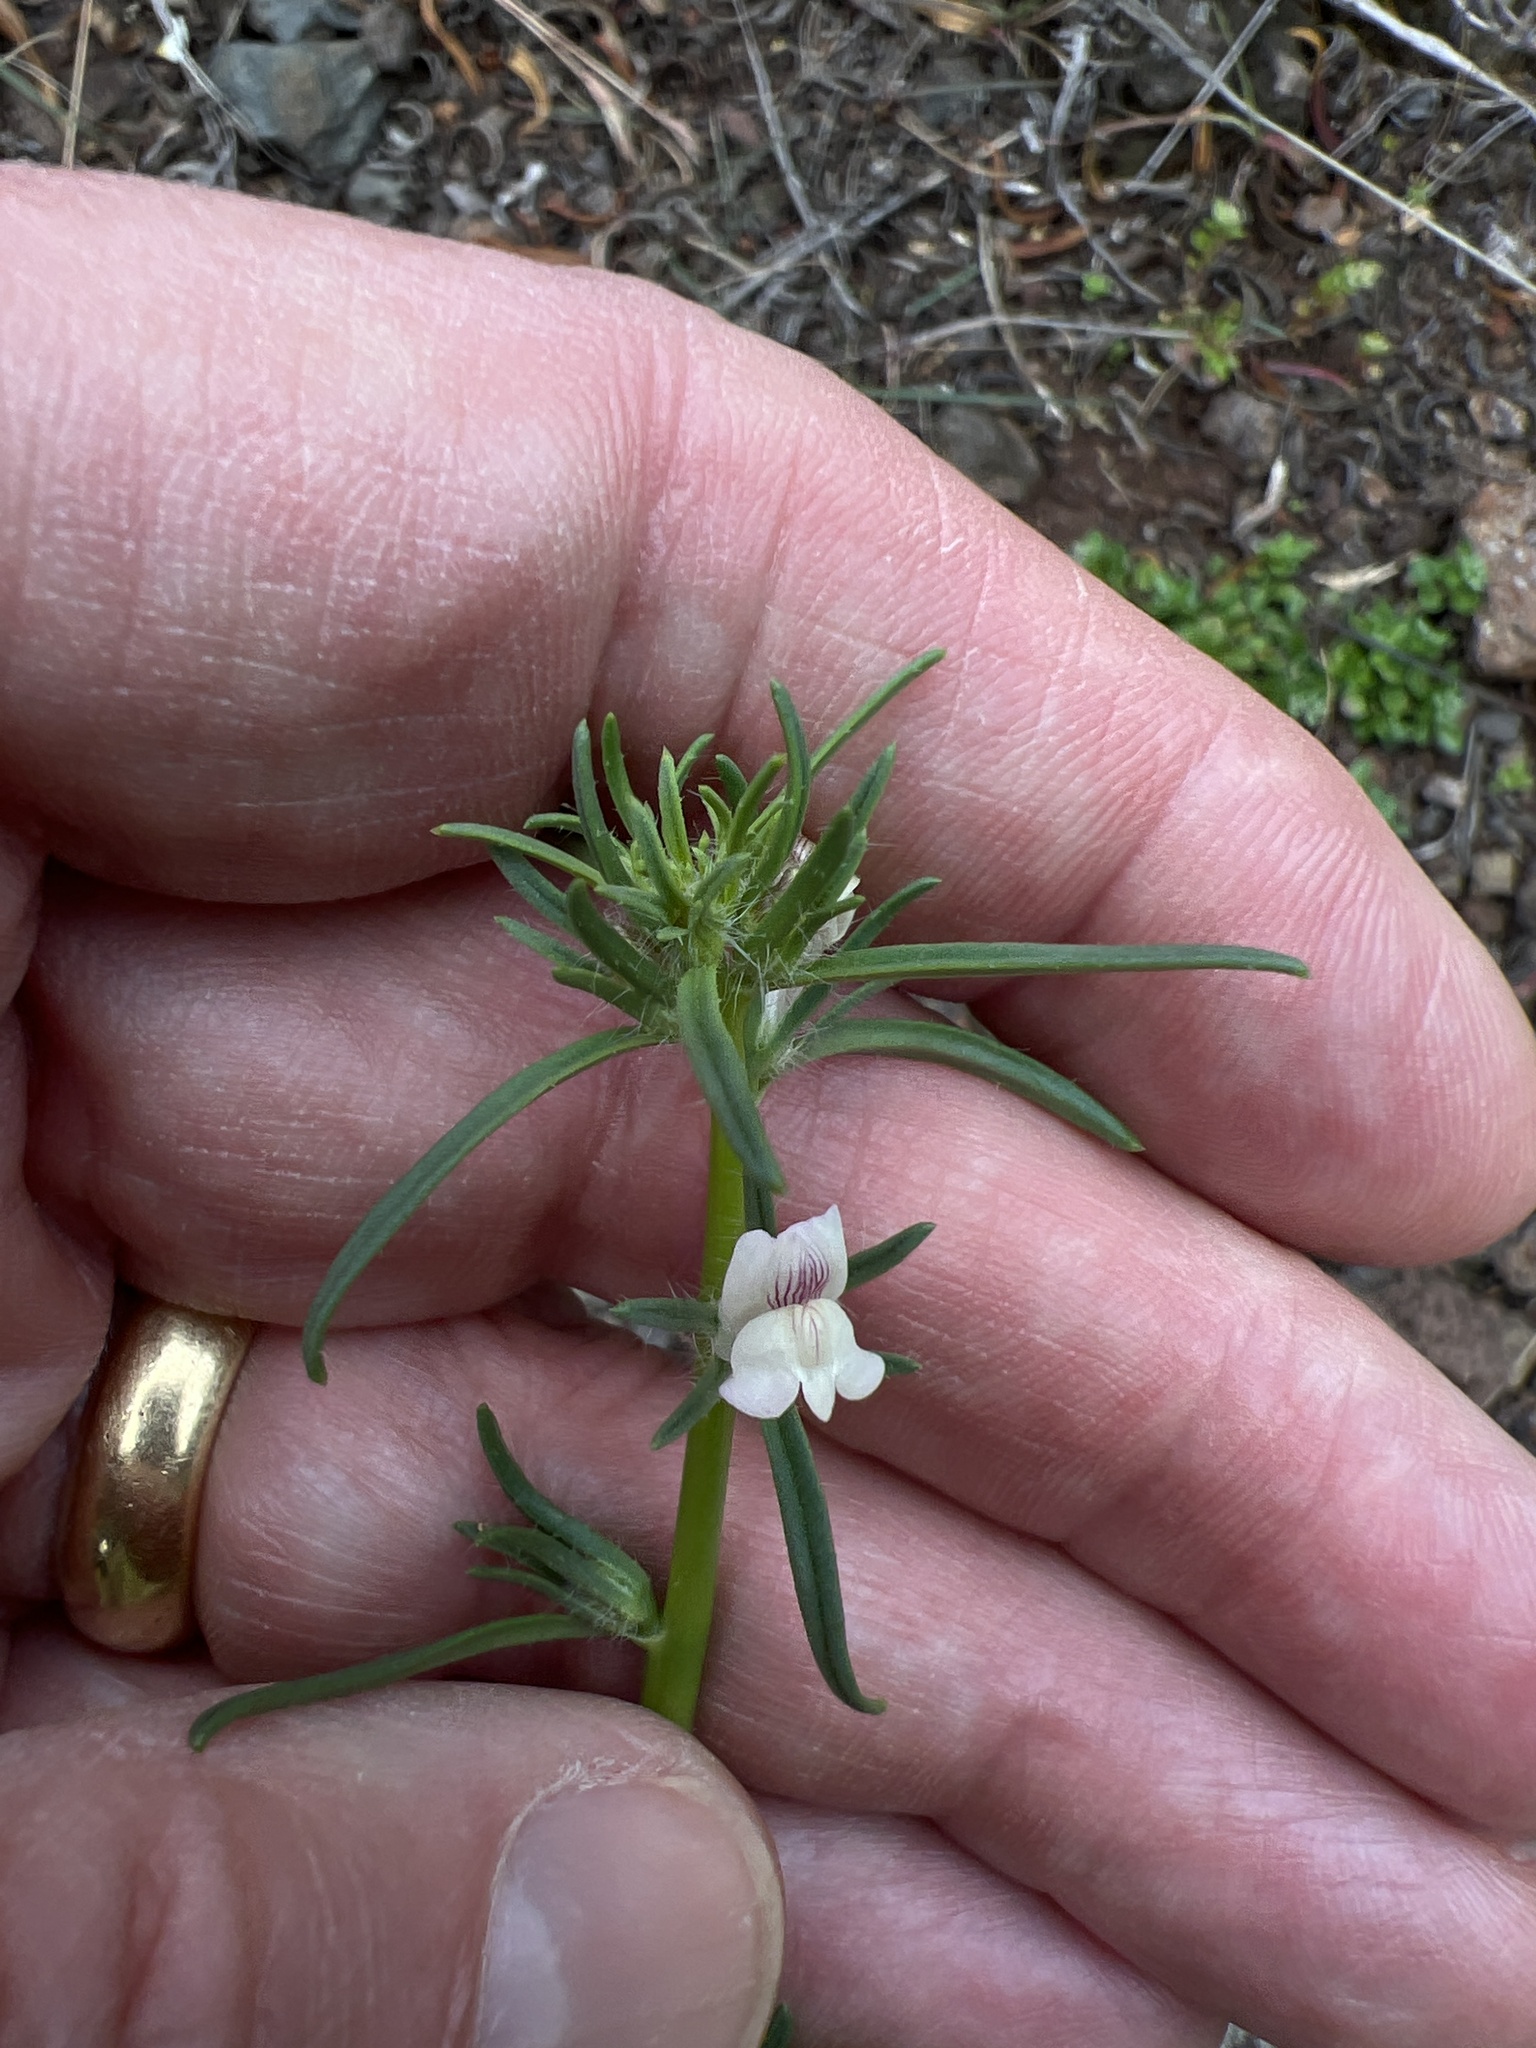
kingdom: Plantae
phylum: Tracheophyta
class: Magnoliopsida
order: Lamiales
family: Plantaginaceae
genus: Misopates
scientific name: Misopates orontium
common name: Weasel's-snout
